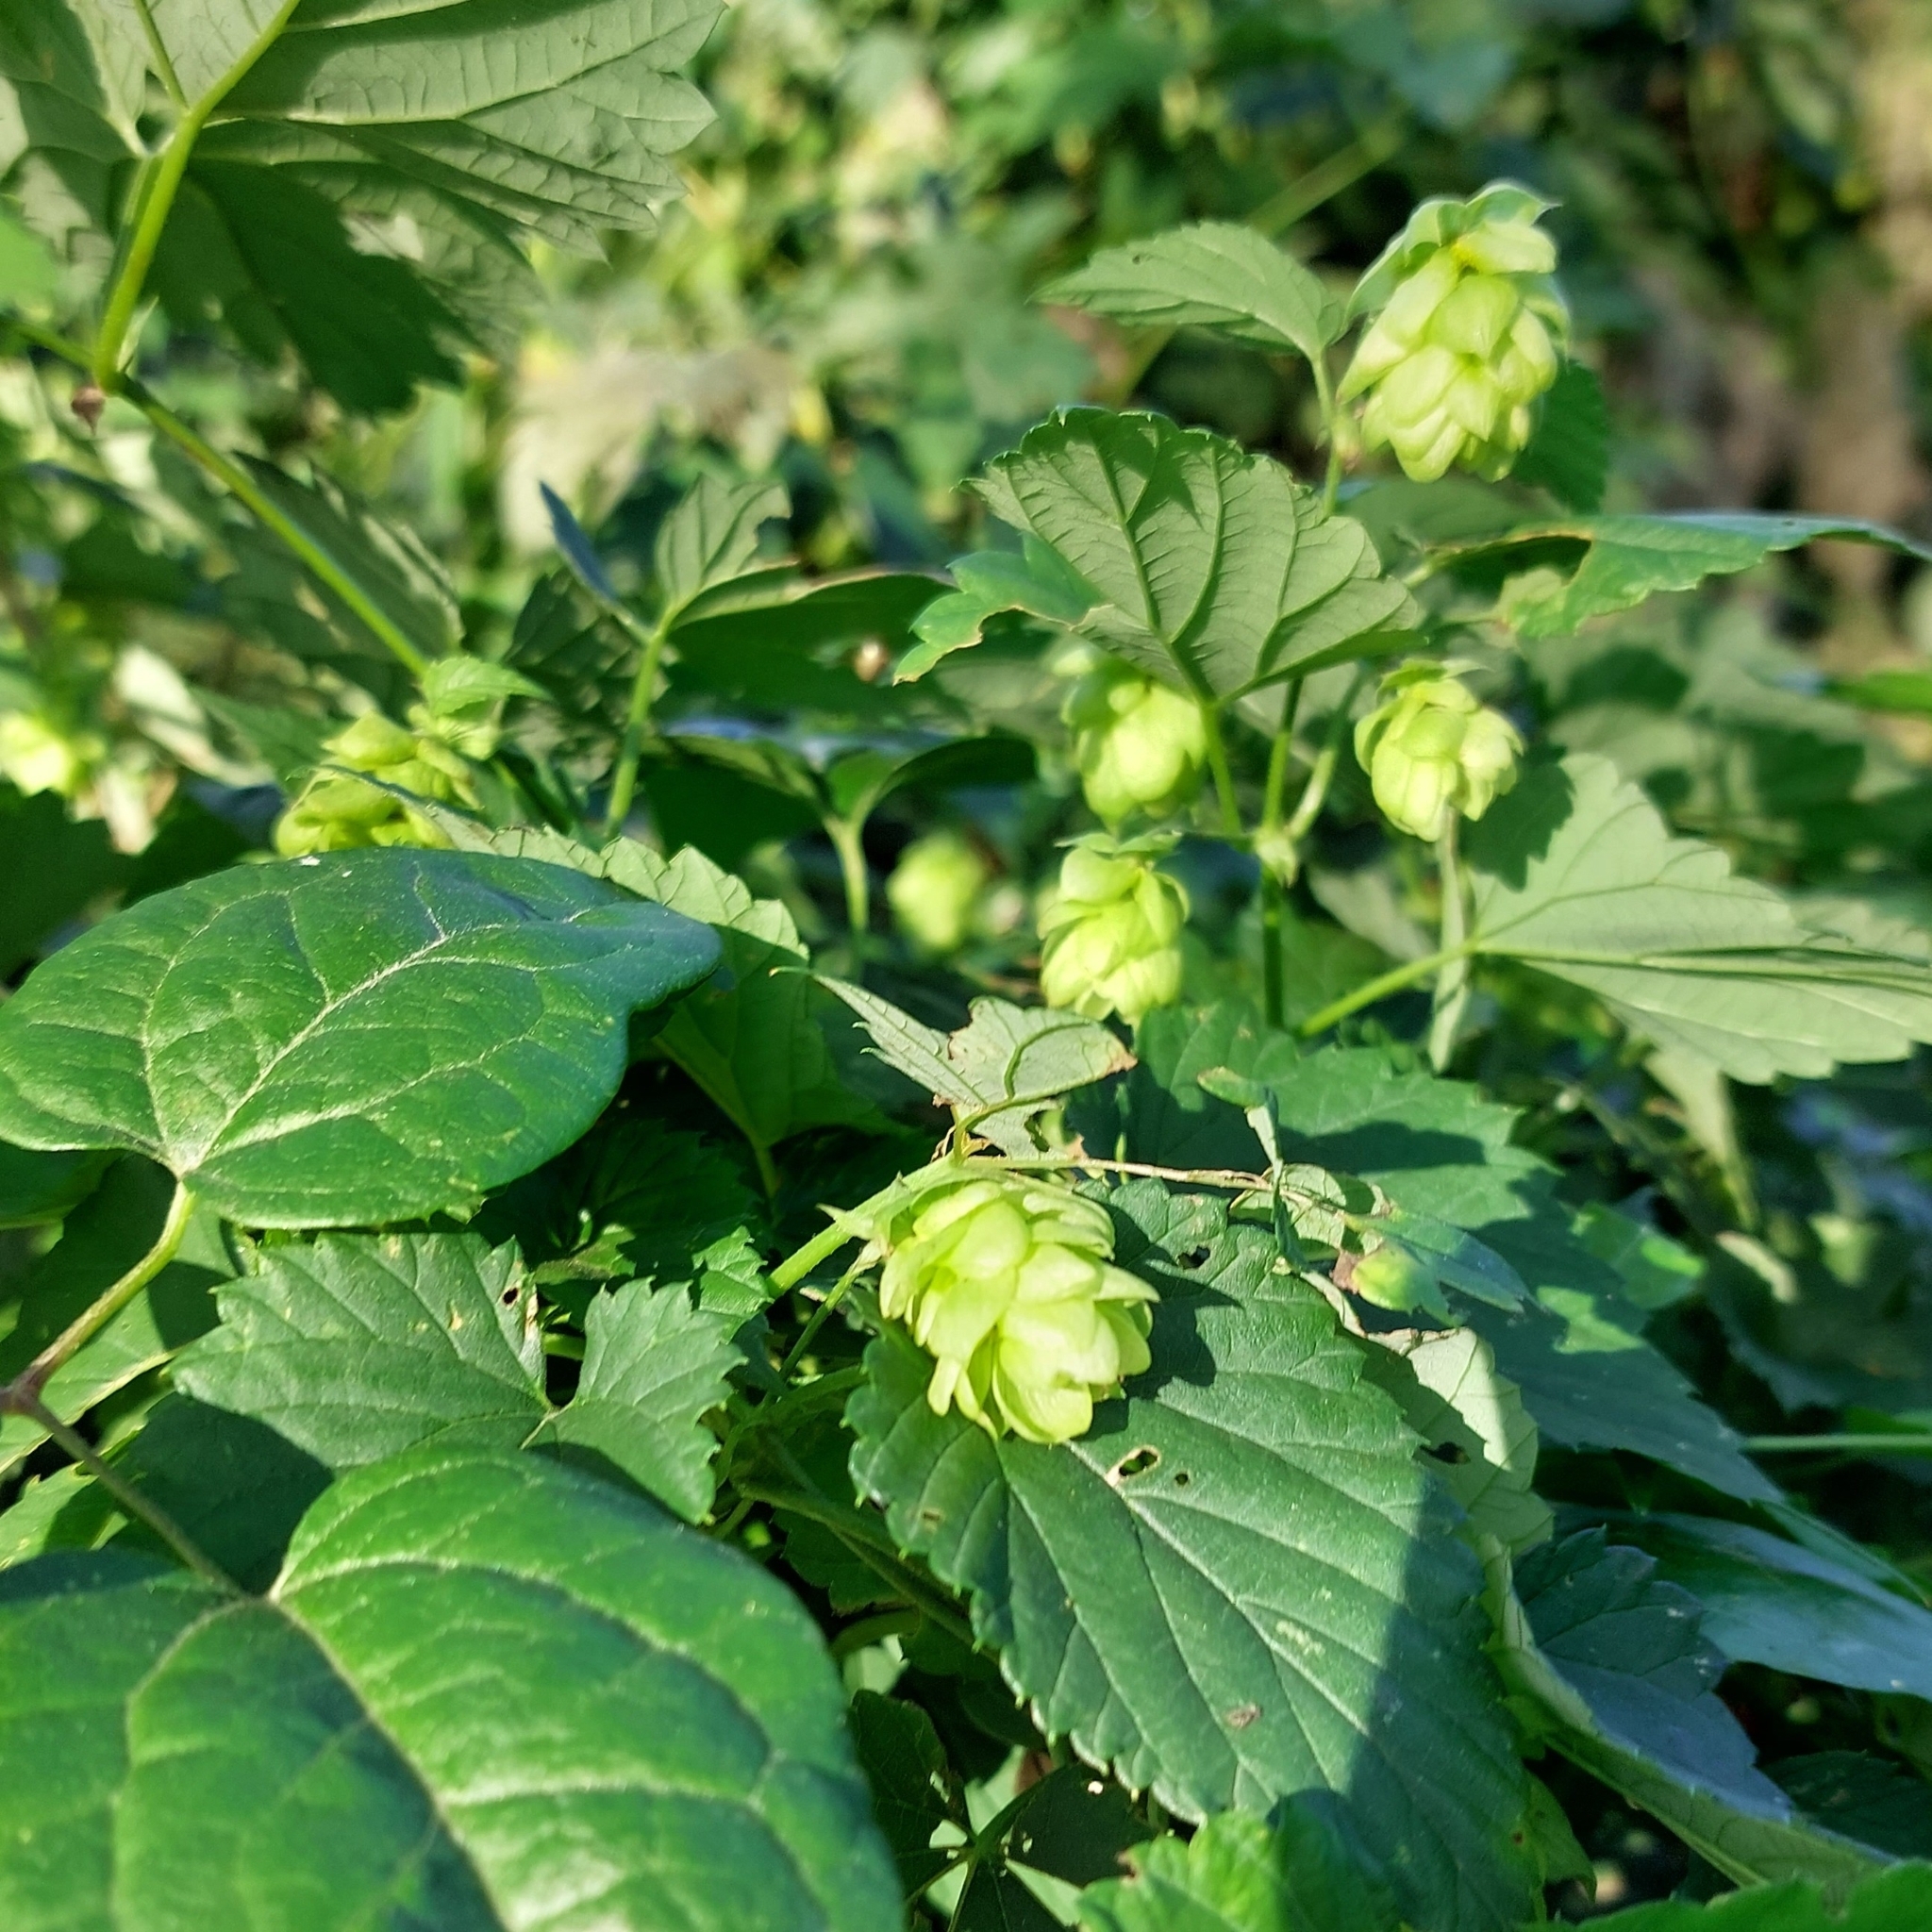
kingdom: Plantae
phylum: Tracheophyta
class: Magnoliopsida
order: Rosales
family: Cannabaceae
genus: Humulus
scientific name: Humulus lupulus
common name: Hop
